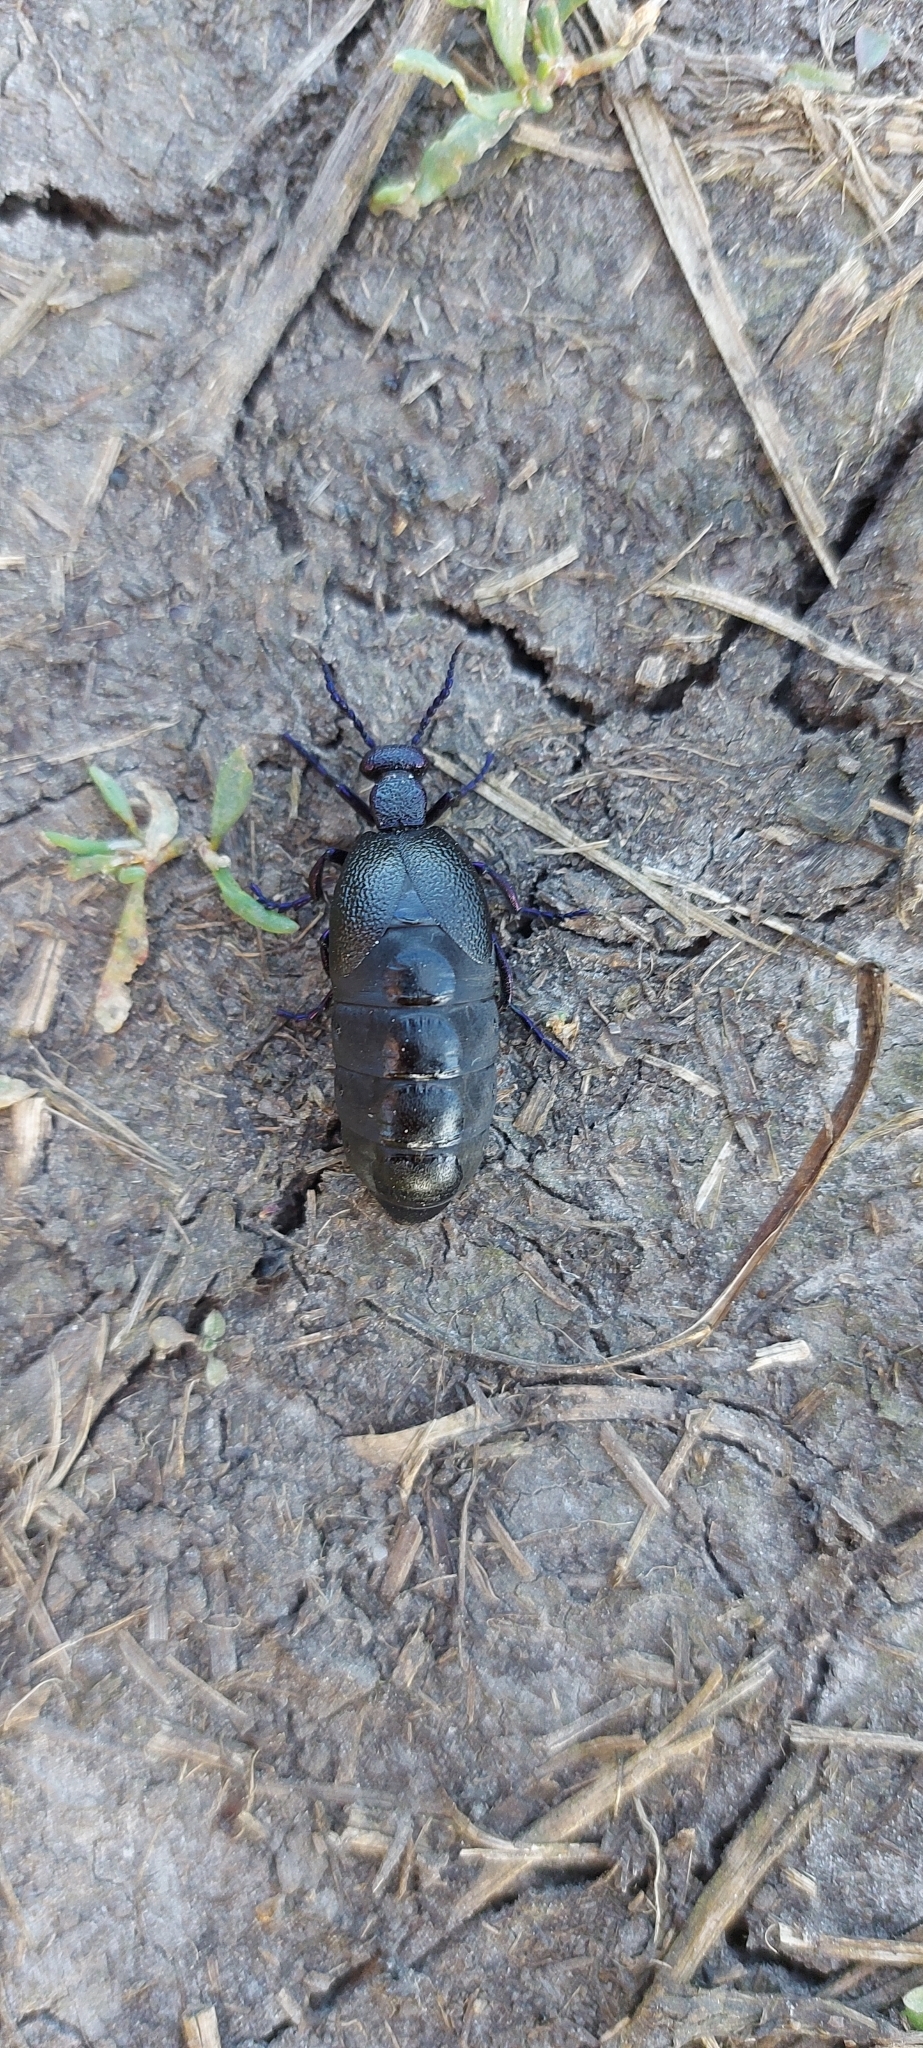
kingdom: Animalia
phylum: Arthropoda
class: Insecta
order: Coleoptera
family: Meloidae
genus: Meloe
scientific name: Meloe proscarabaeus
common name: Black oil-beetle
